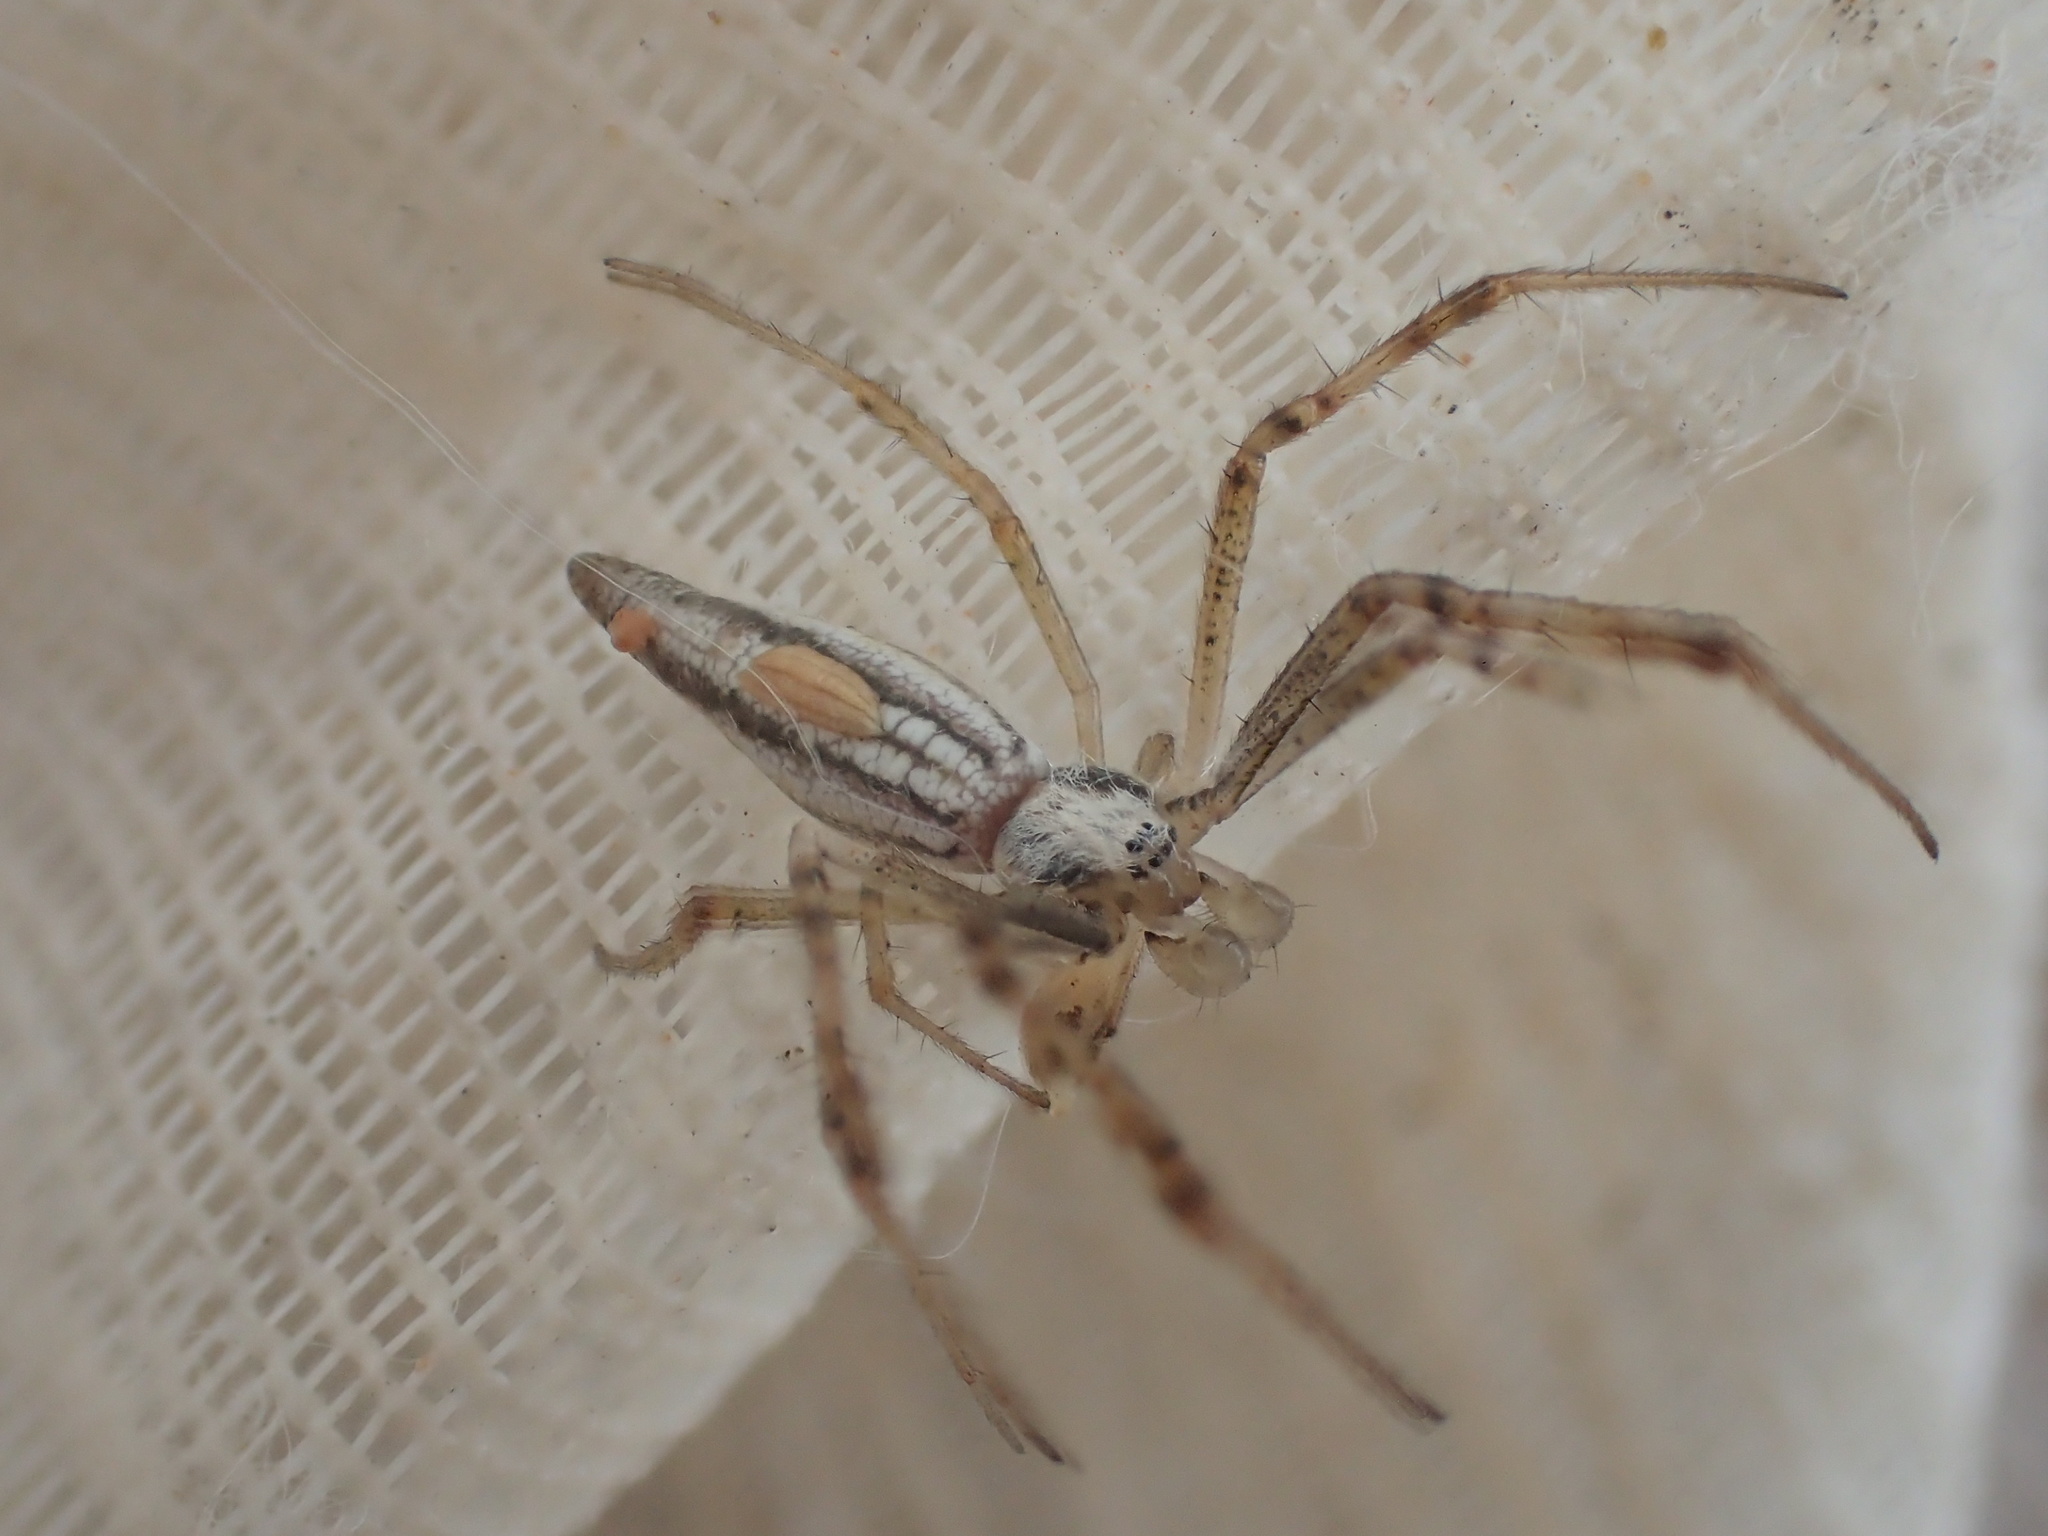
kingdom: Animalia
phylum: Arthropoda
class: Arachnida
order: Araneae
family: Araneidae
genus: Argiope
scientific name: Argiope protensa
